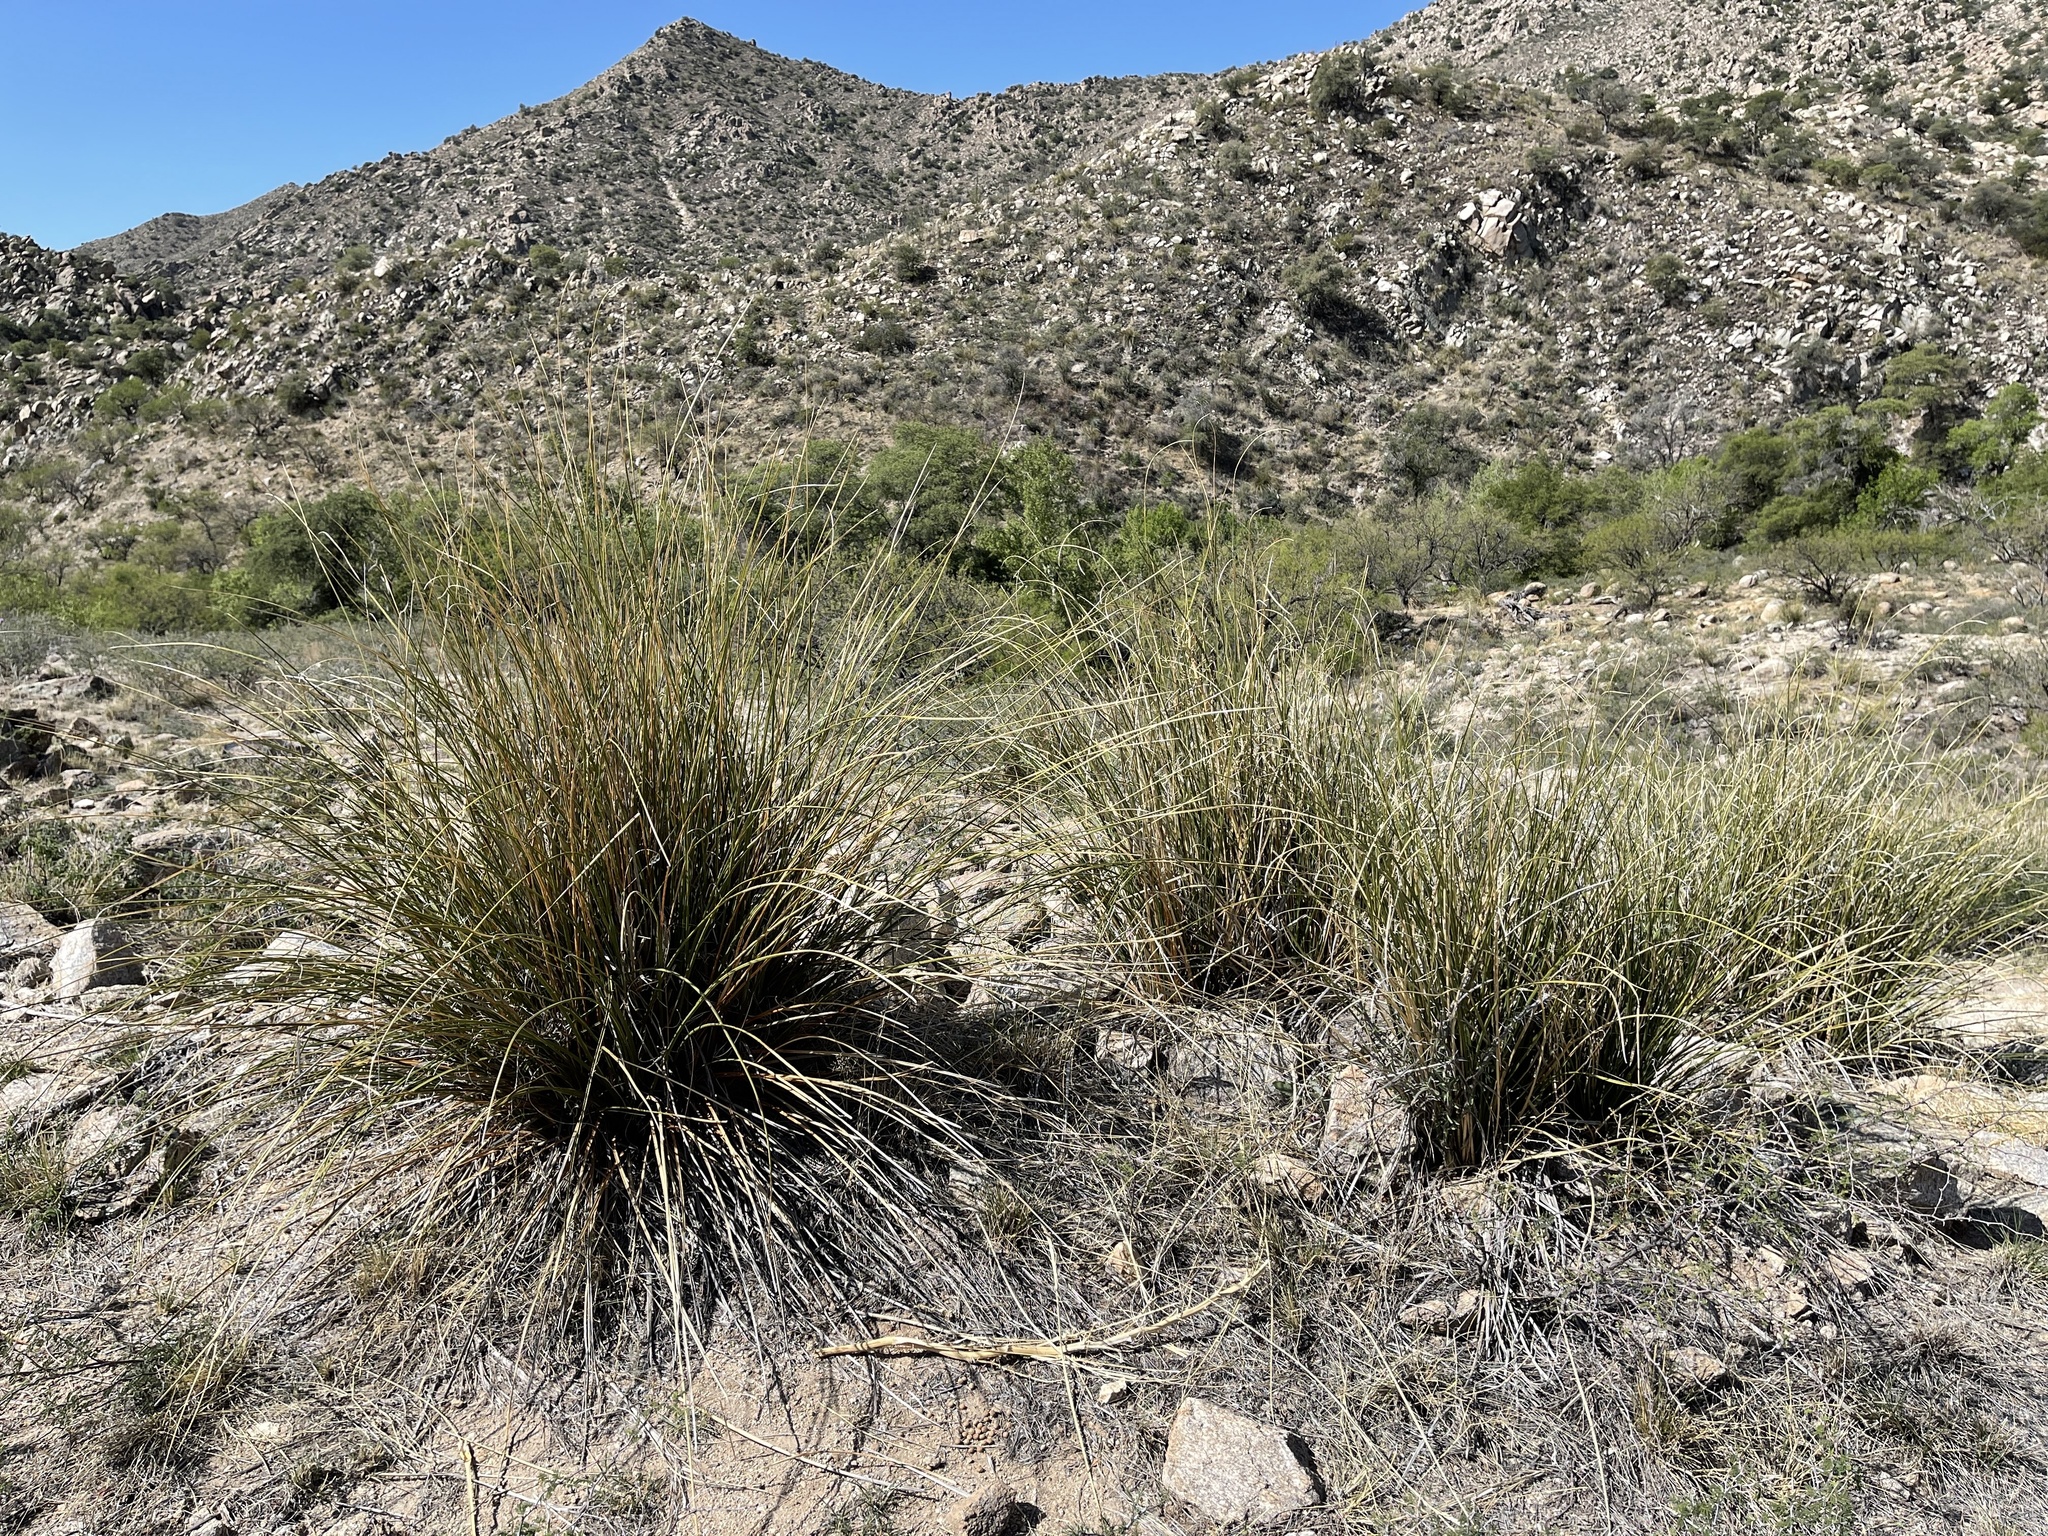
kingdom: Plantae
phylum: Tracheophyta
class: Liliopsida
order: Asparagales
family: Asparagaceae
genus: Nolina
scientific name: Nolina microcarpa
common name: Bear-grass
